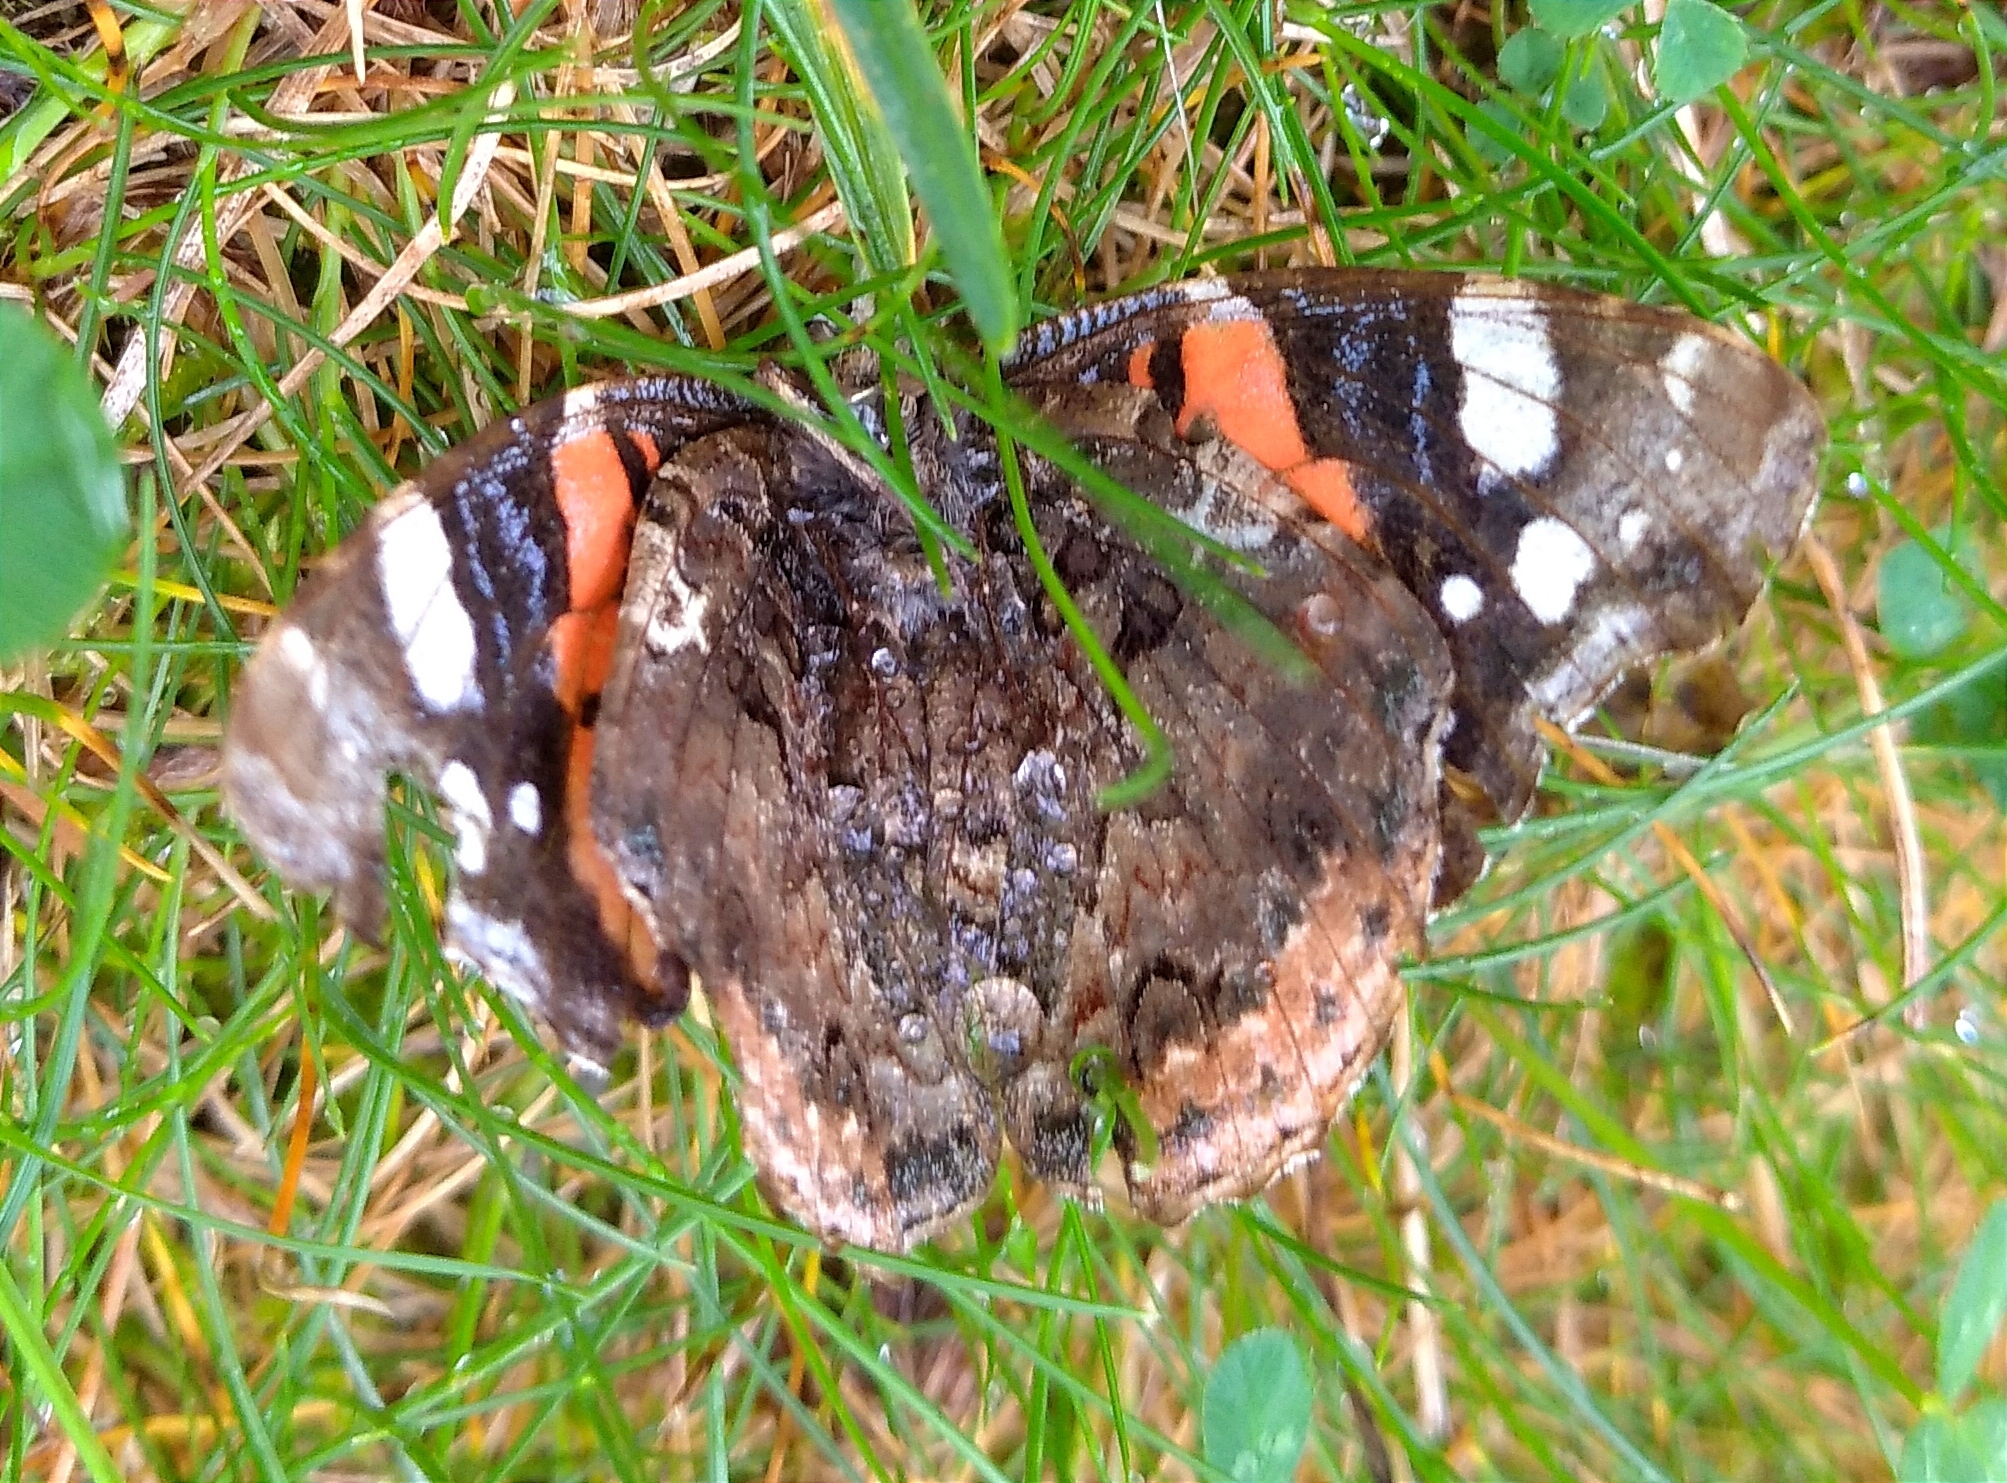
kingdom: Animalia
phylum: Arthropoda
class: Insecta
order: Lepidoptera
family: Nymphalidae
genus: Vanessa
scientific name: Vanessa atalanta
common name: Red admiral
